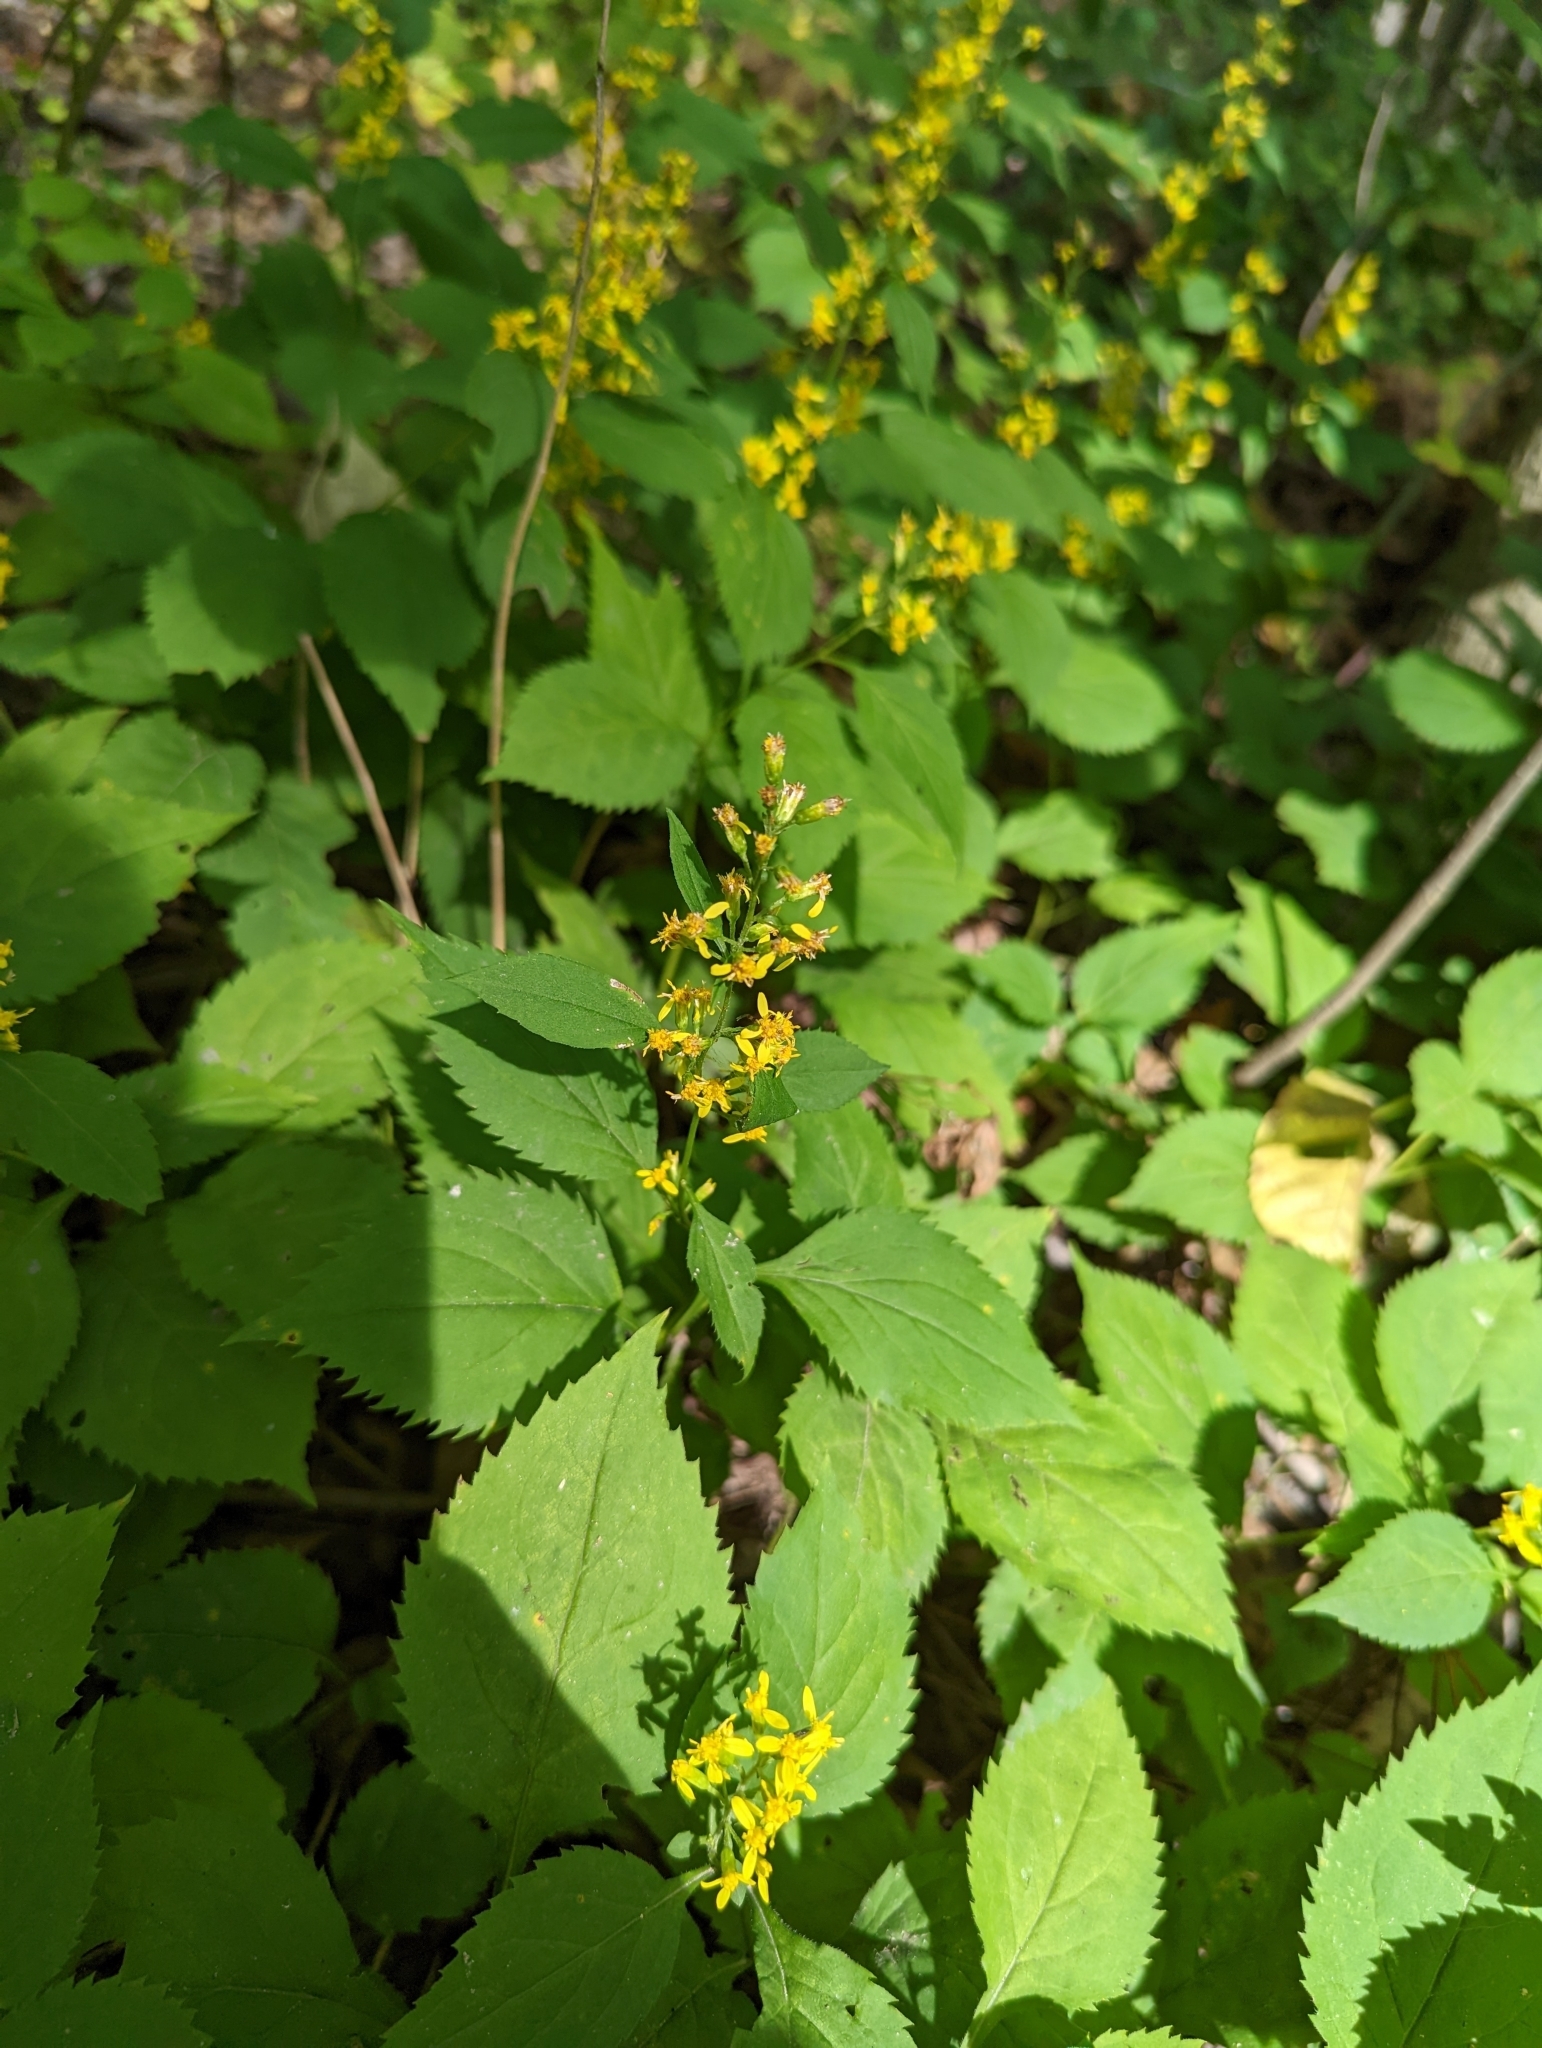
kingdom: Plantae
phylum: Tracheophyta
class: Magnoliopsida
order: Asterales
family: Asteraceae
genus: Solidago
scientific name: Solidago flexicaulis
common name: Zig-zag goldenrod
